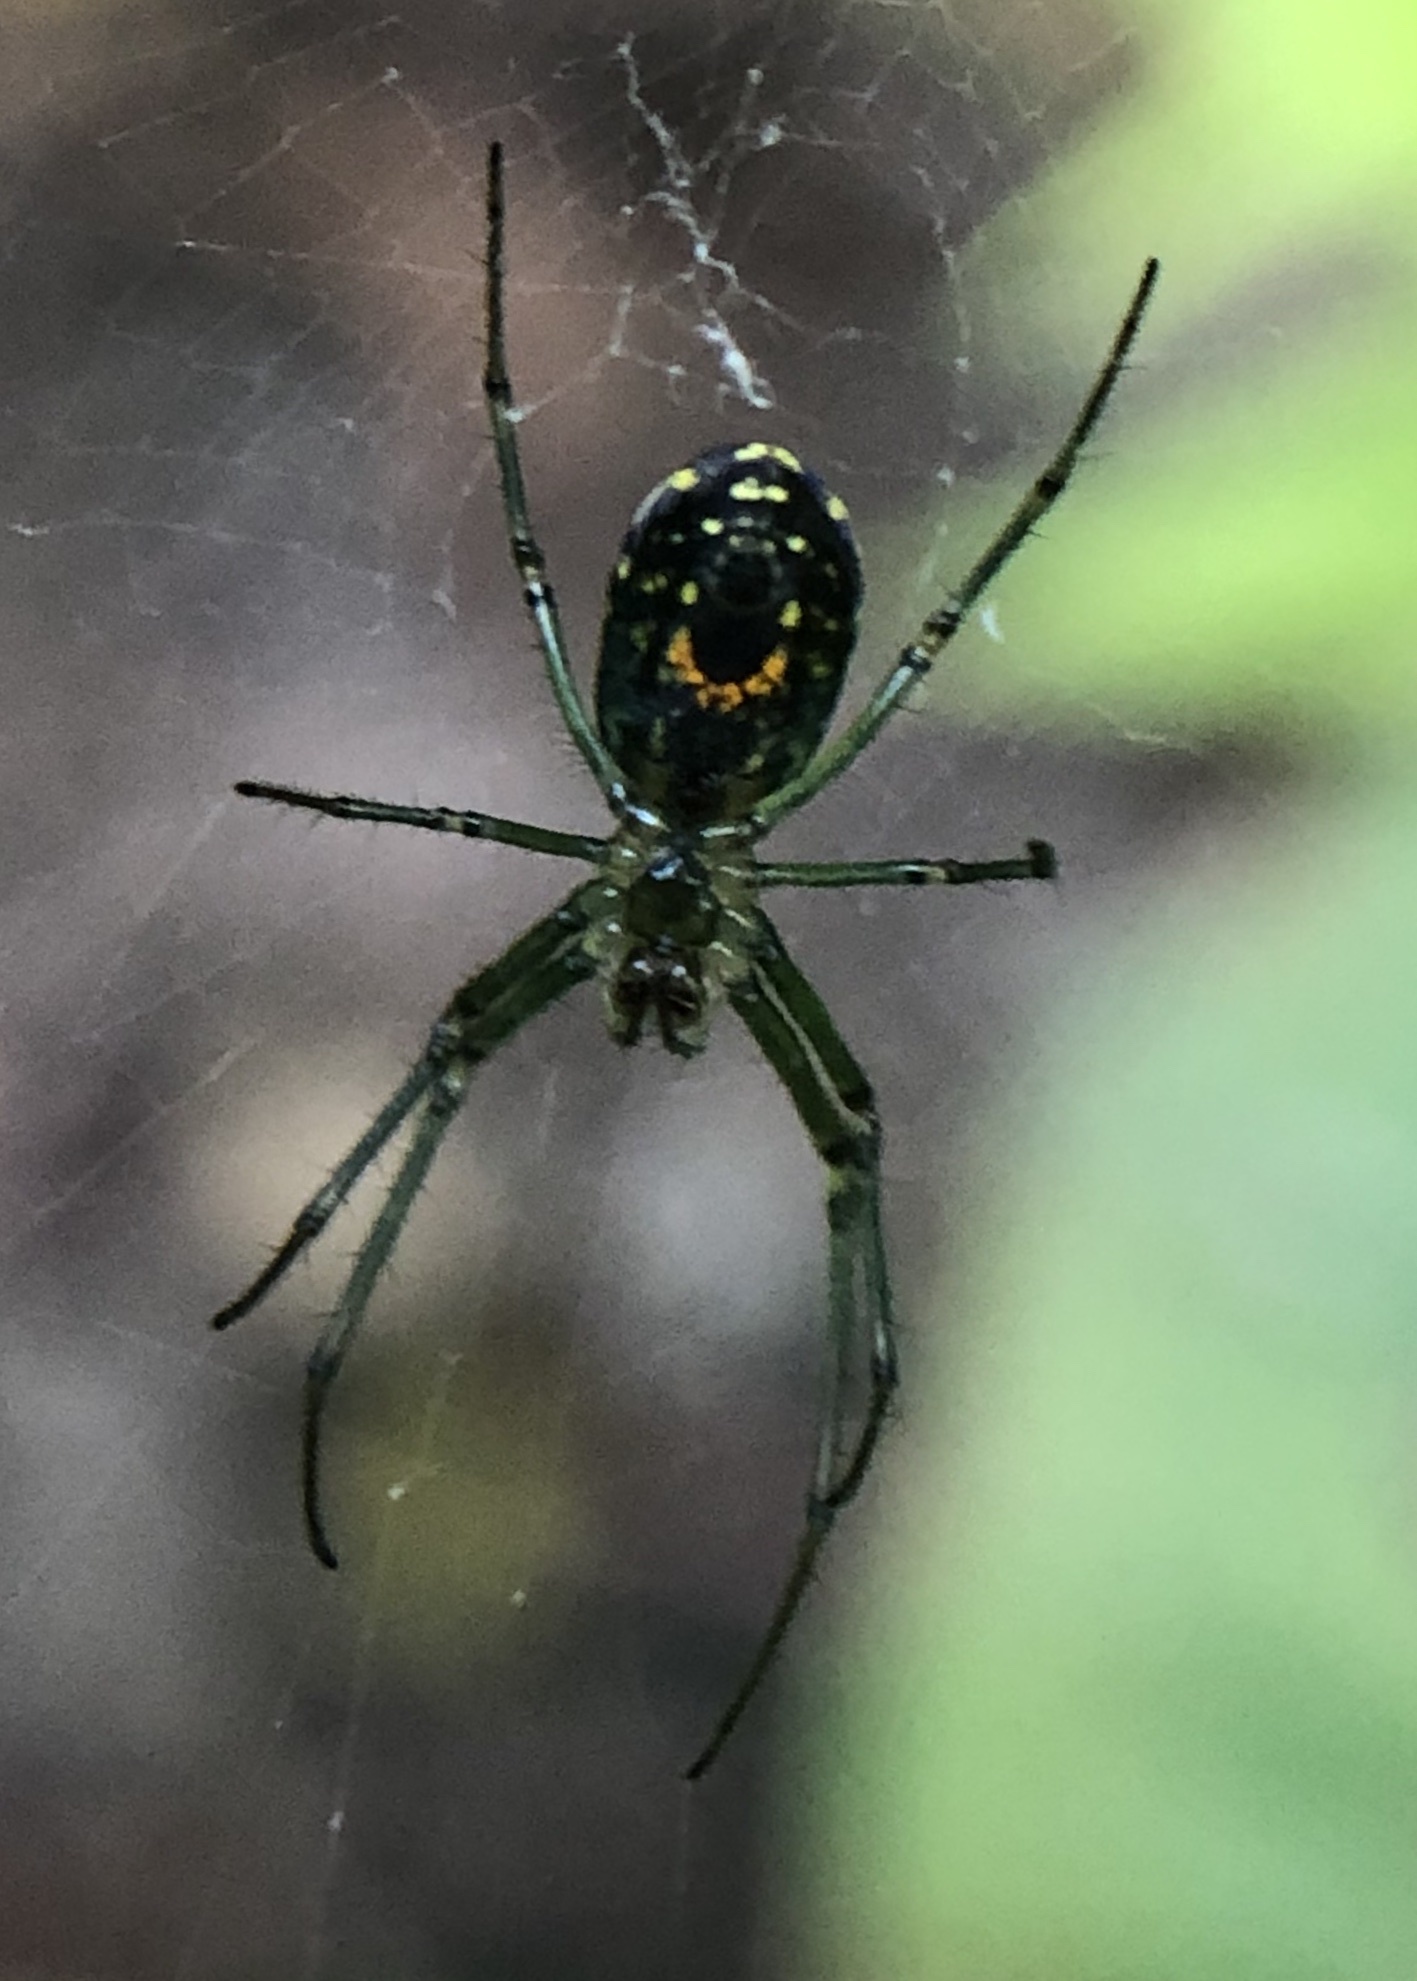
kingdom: Animalia
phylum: Arthropoda
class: Arachnida
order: Araneae
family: Tetragnathidae
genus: Leucauge
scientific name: Leucauge venusta
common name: Longjawed orb weavers
